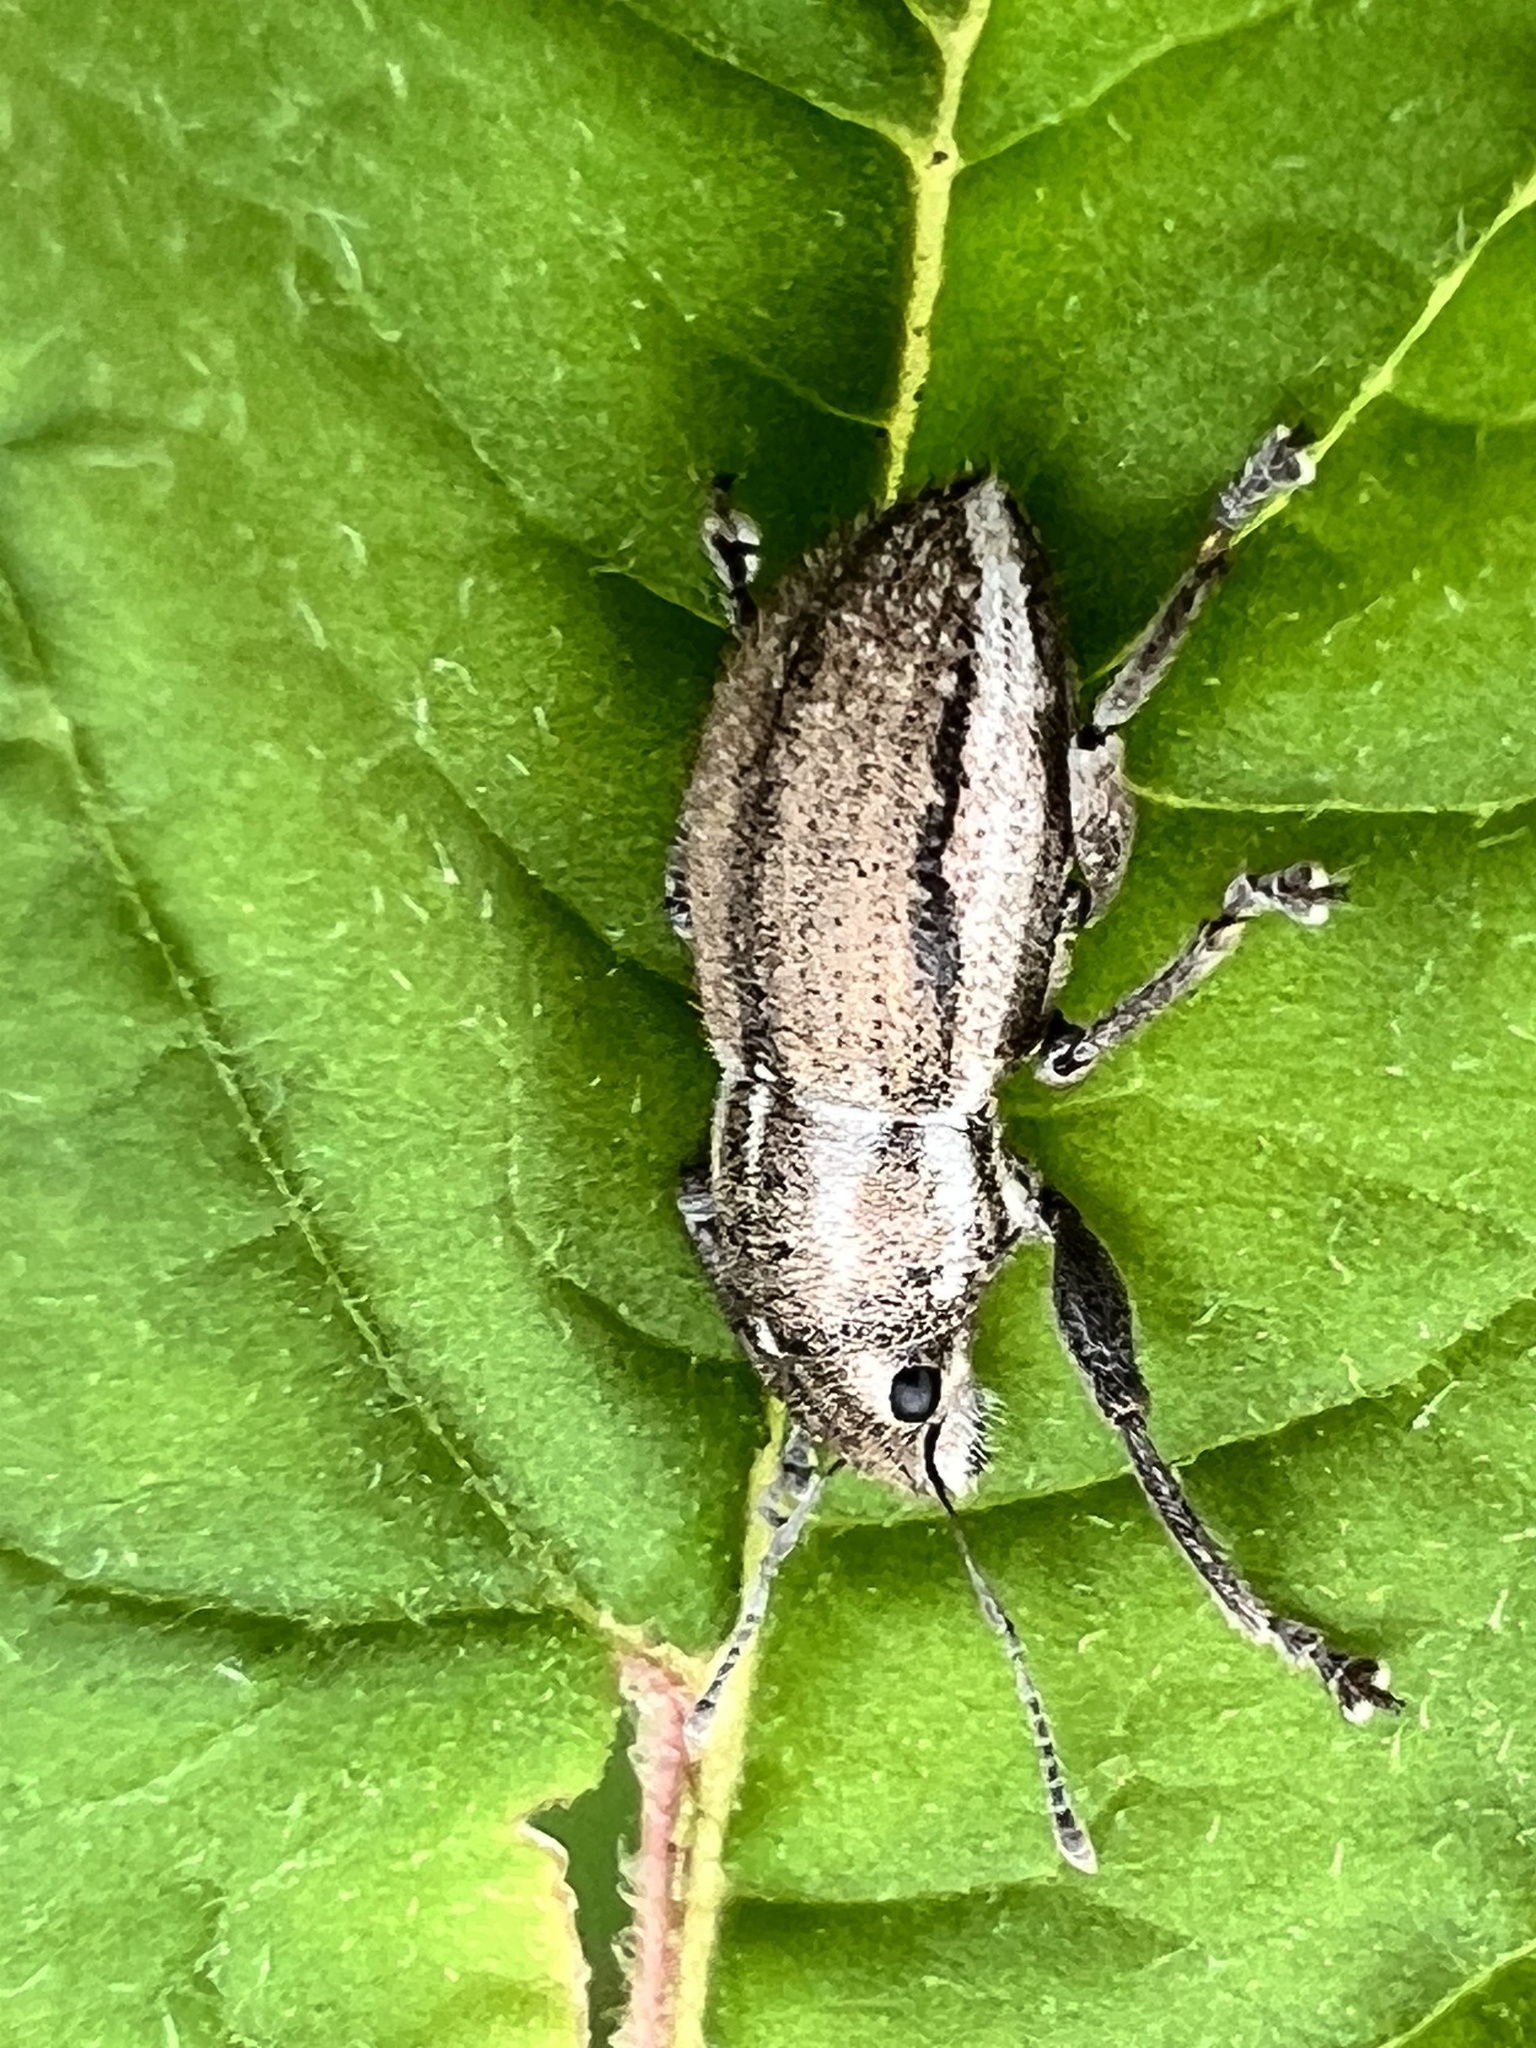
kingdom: Animalia
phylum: Arthropoda
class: Insecta
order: Coleoptera
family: Curculionidae
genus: Naupactus
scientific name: Naupactus peregrinus
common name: Whitefringed beetle
